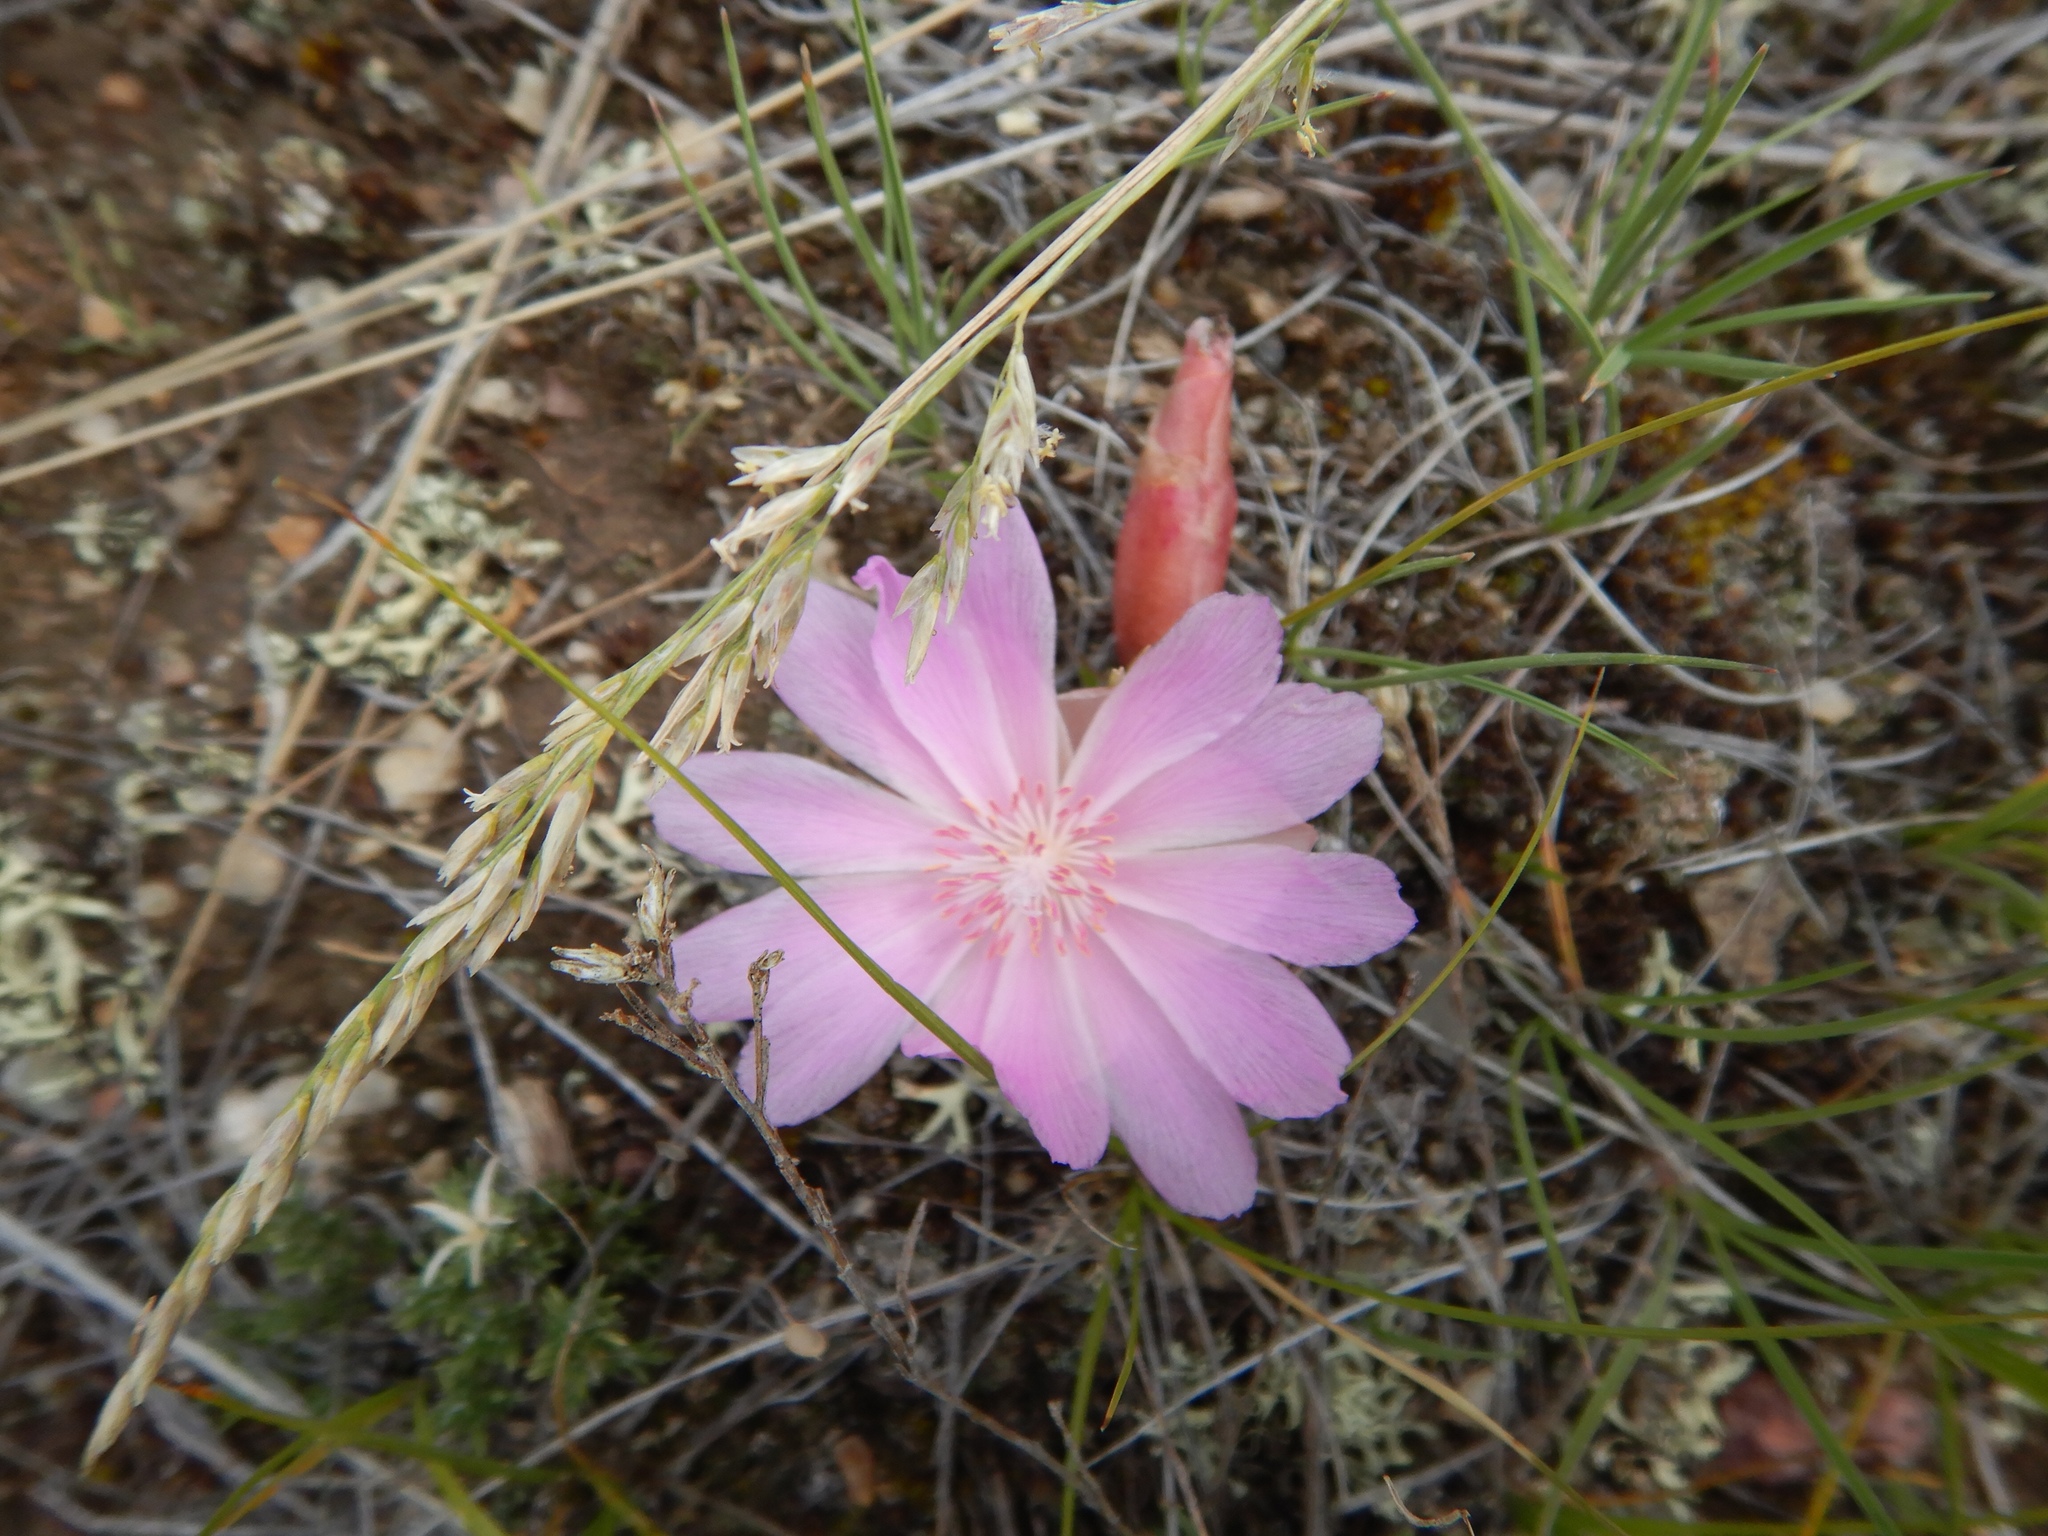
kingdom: Plantae
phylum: Tracheophyta
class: Magnoliopsida
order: Caryophyllales
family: Montiaceae
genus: Lewisia
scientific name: Lewisia rediviva
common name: Bitter-root
